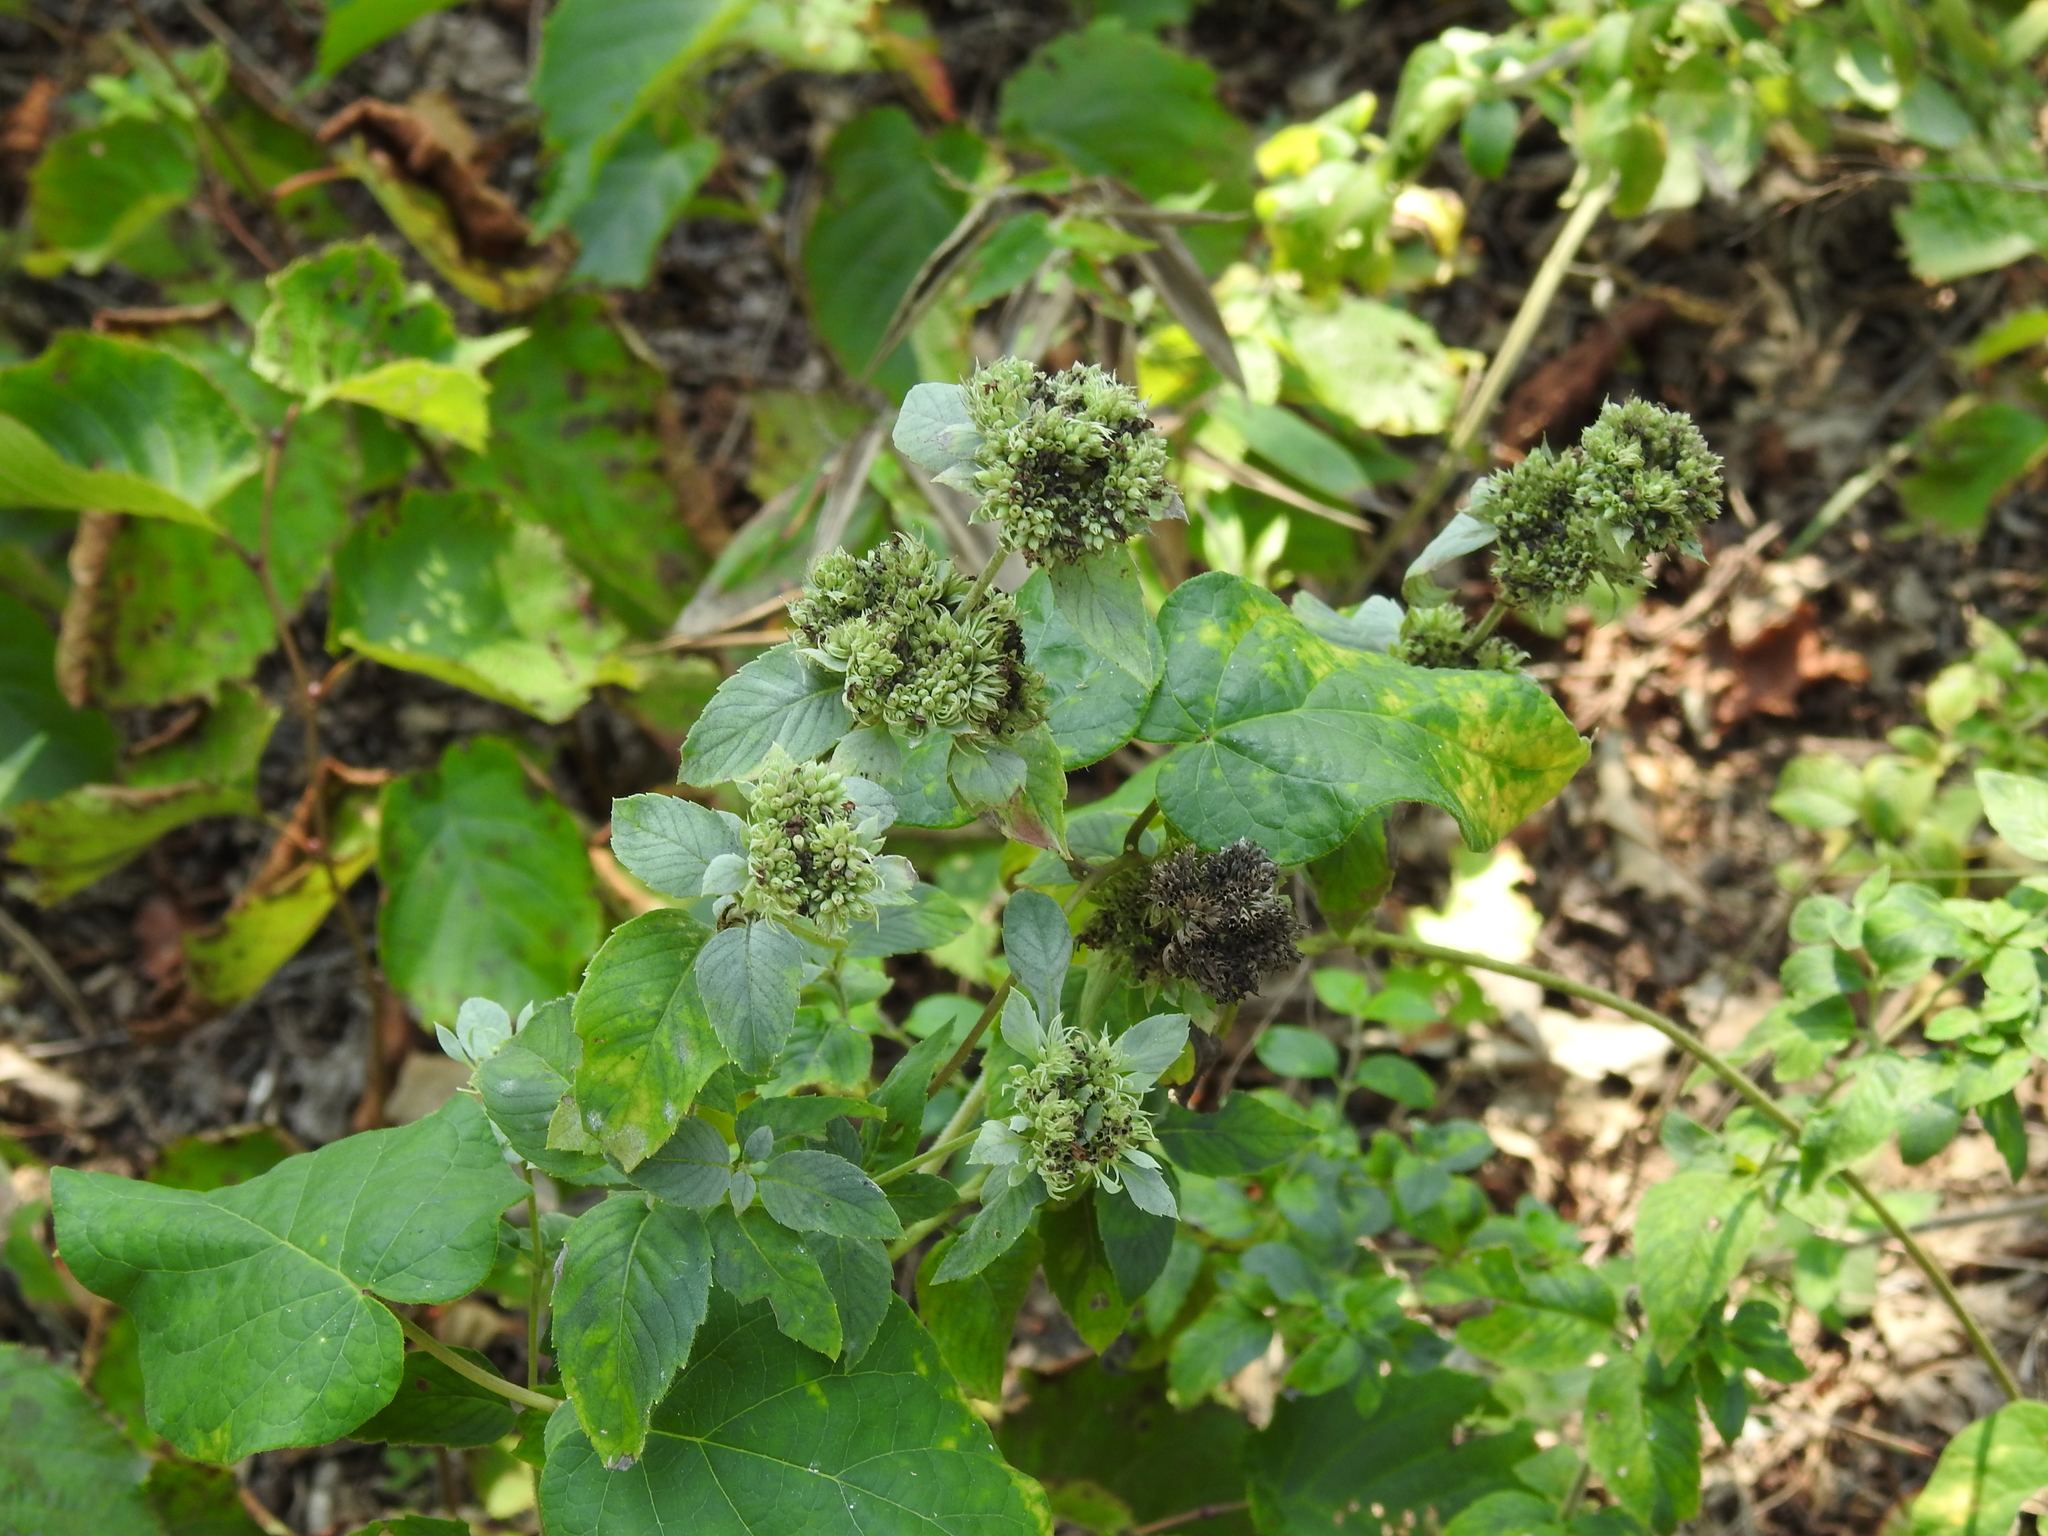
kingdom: Plantae
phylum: Tracheophyta
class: Magnoliopsida
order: Lamiales
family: Lamiaceae
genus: Pycnanthemum
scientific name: Pycnanthemum incanum
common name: Hoary mountain-mint
